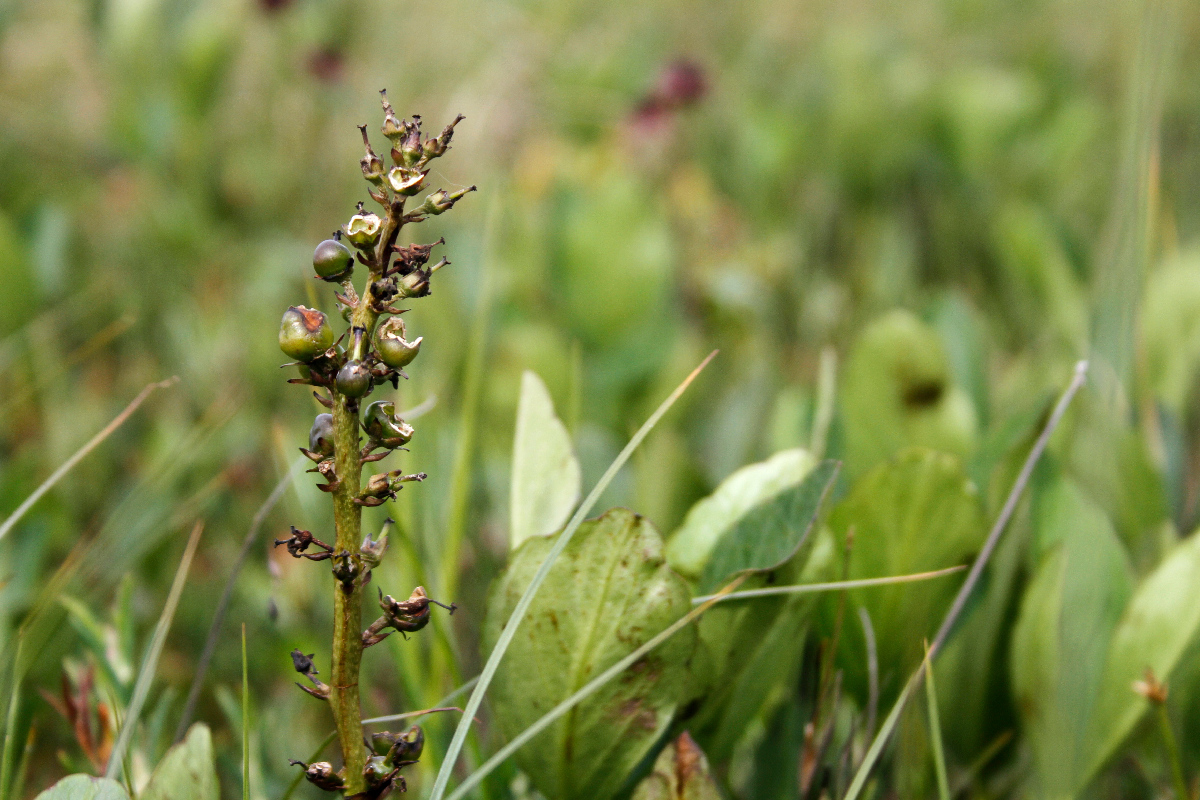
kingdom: Plantae
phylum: Tracheophyta
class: Magnoliopsida
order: Asterales
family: Menyanthaceae
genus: Menyanthes
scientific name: Menyanthes trifoliata
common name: Bogbean
